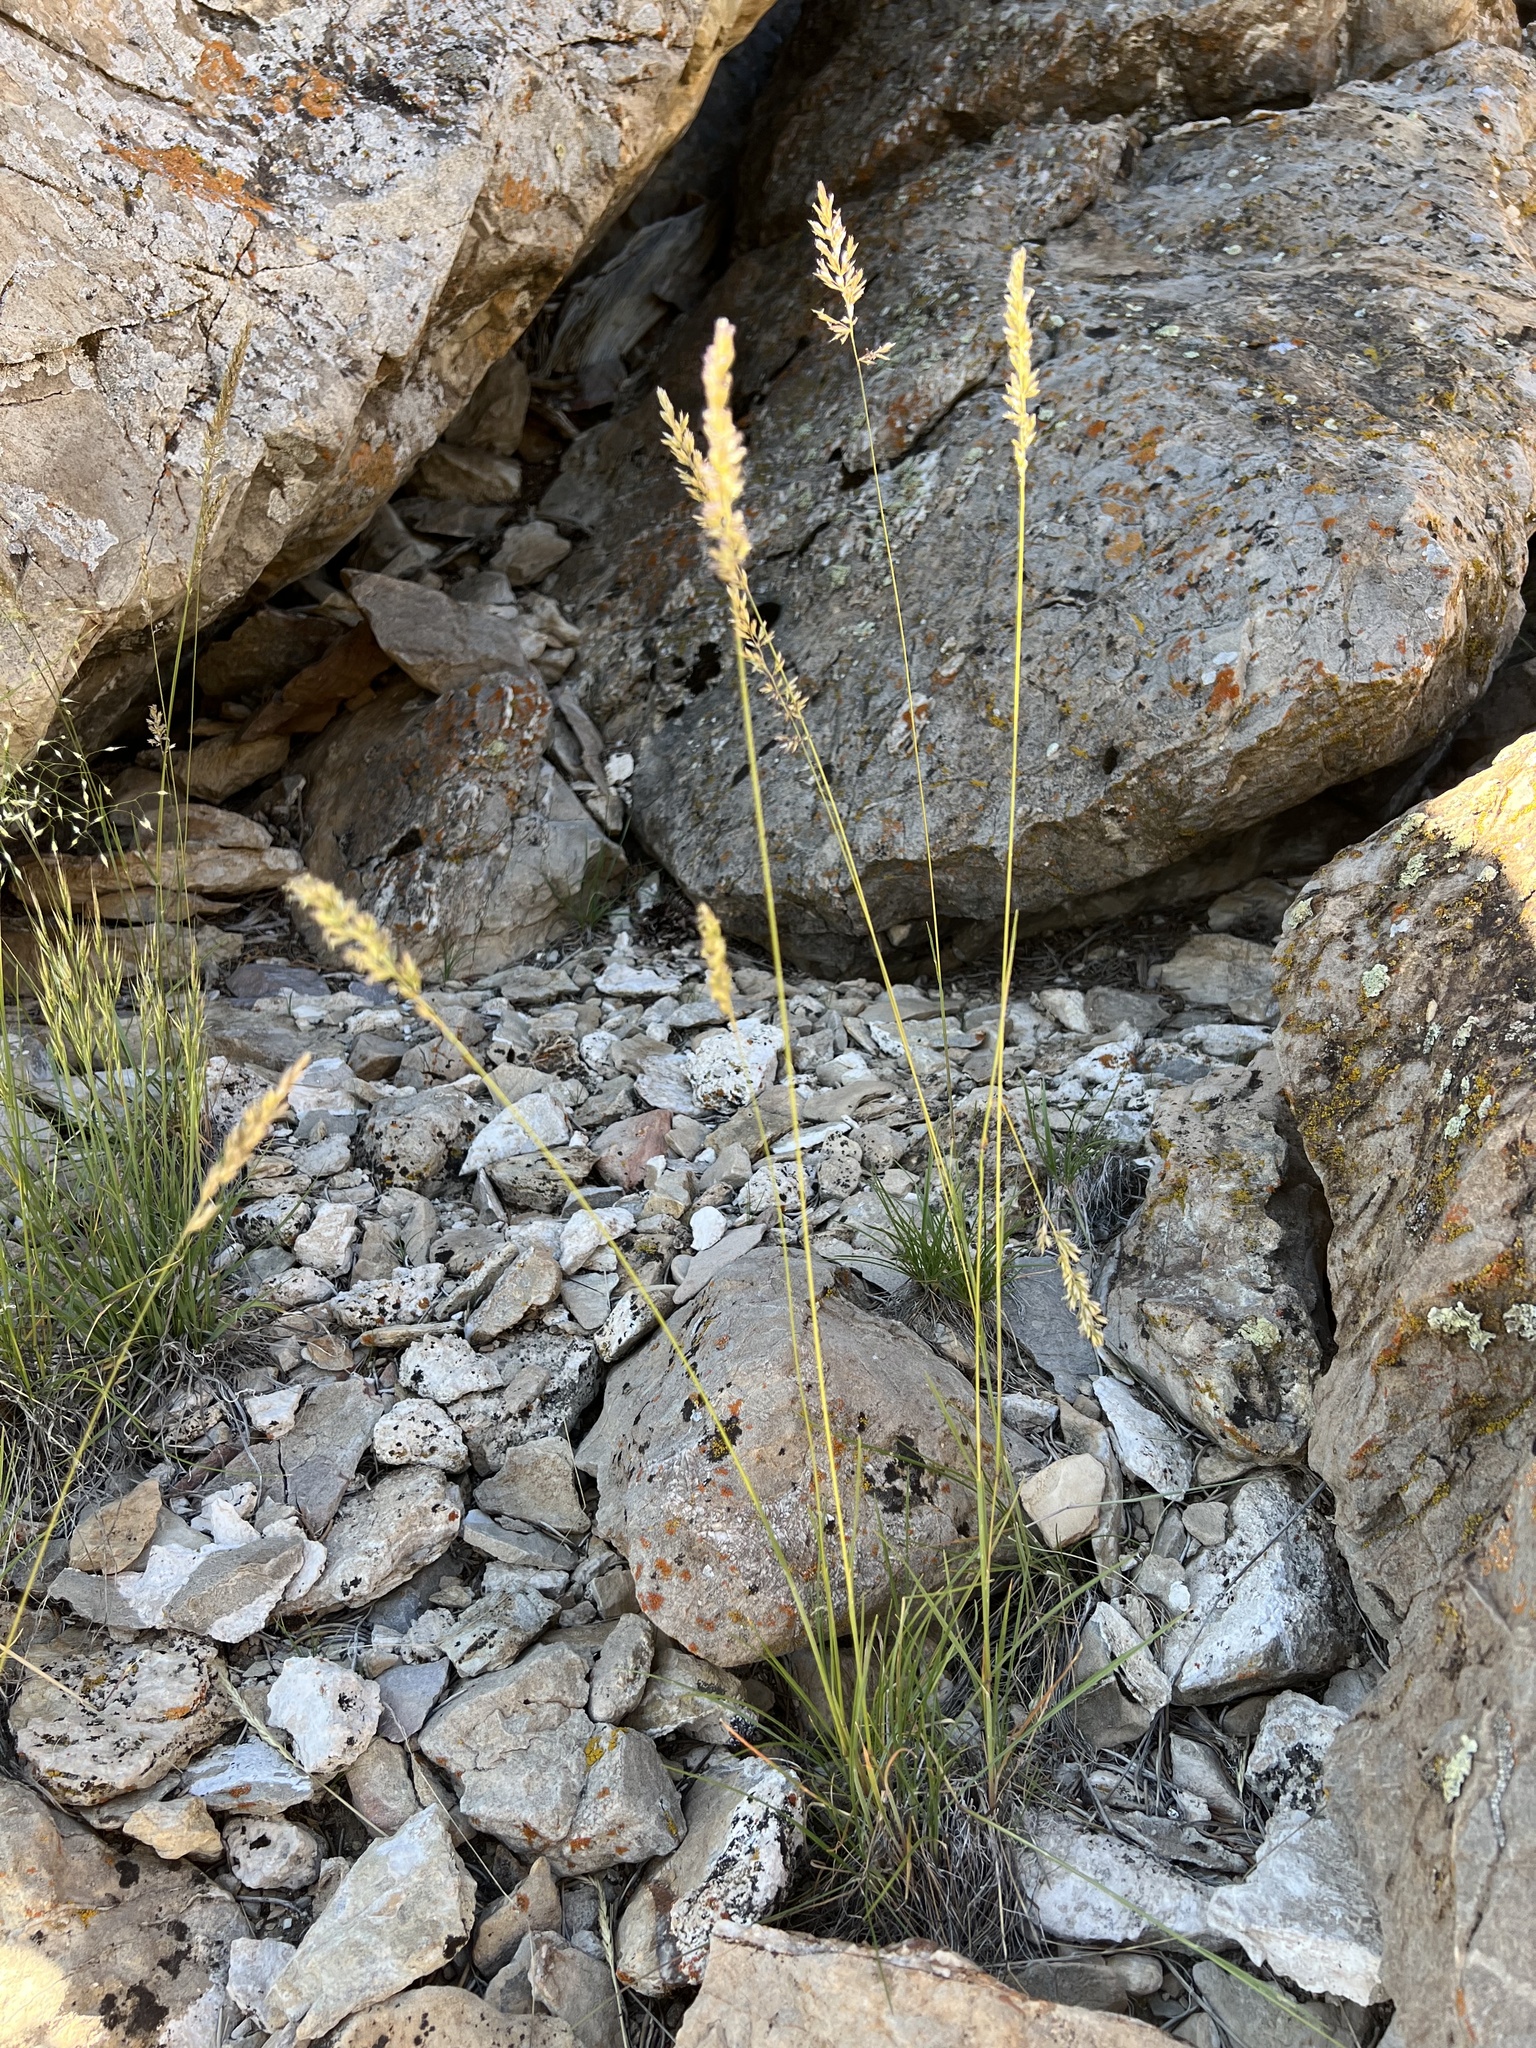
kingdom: Plantae
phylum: Tracheophyta
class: Liliopsida
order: Poales
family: Poaceae
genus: Koeleria
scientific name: Koeleria macrantha
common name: Crested hair-grass
